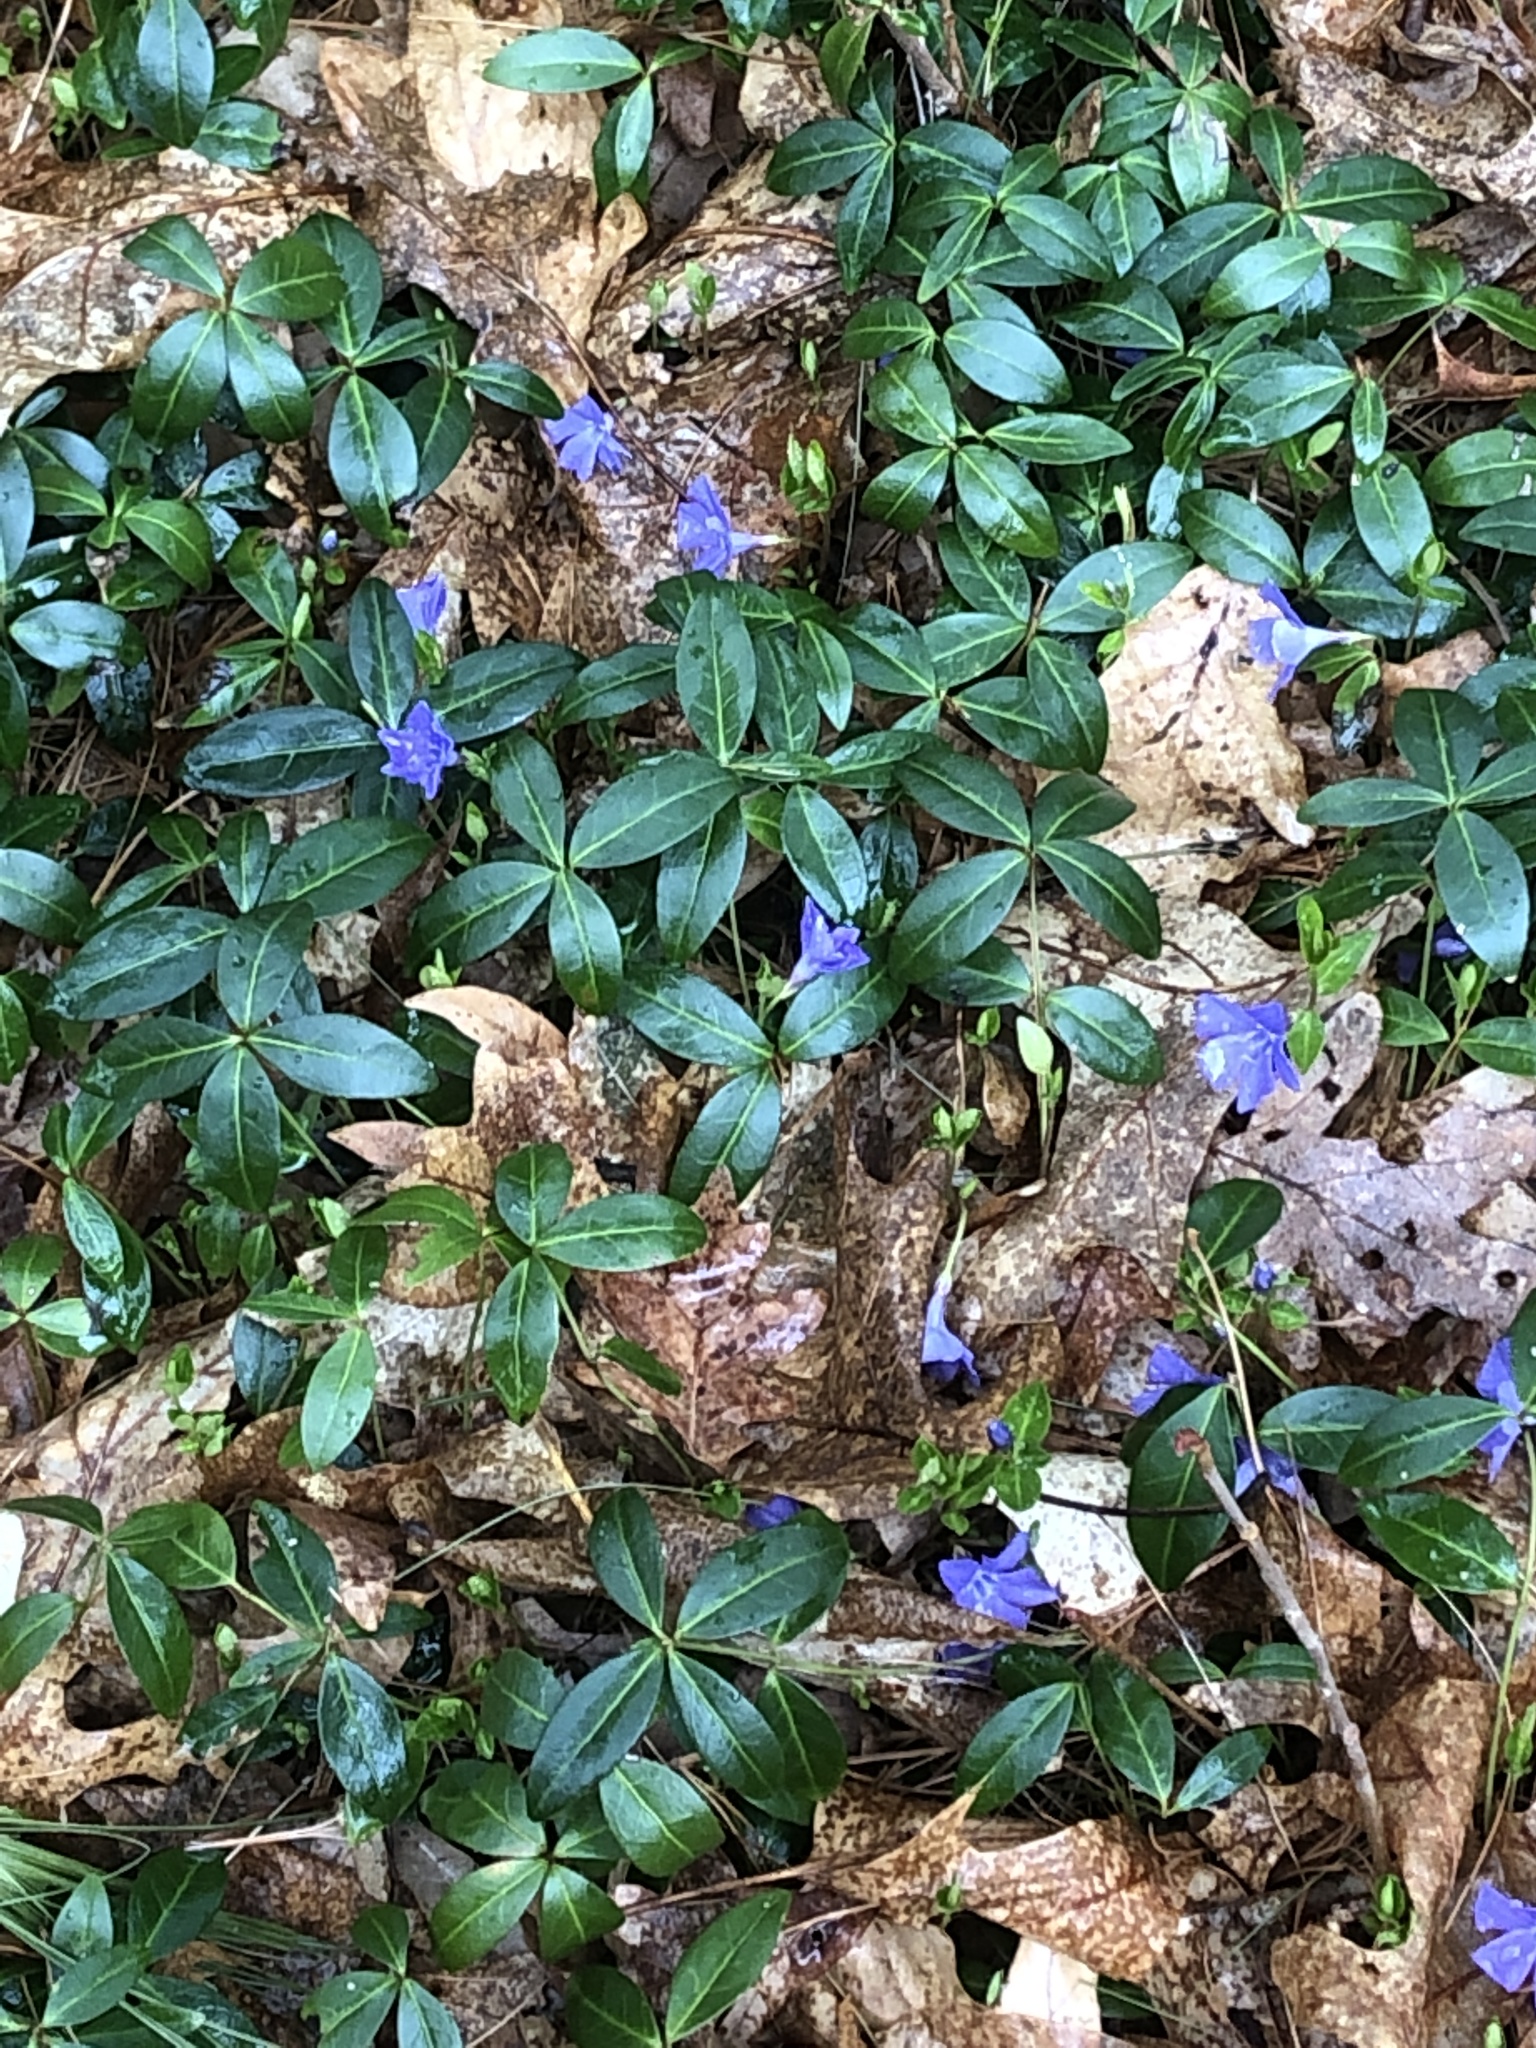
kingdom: Plantae
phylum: Tracheophyta
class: Magnoliopsida
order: Gentianales
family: Apocynaceae
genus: Vinca
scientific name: Vinca minor
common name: Lesser periwinkle
